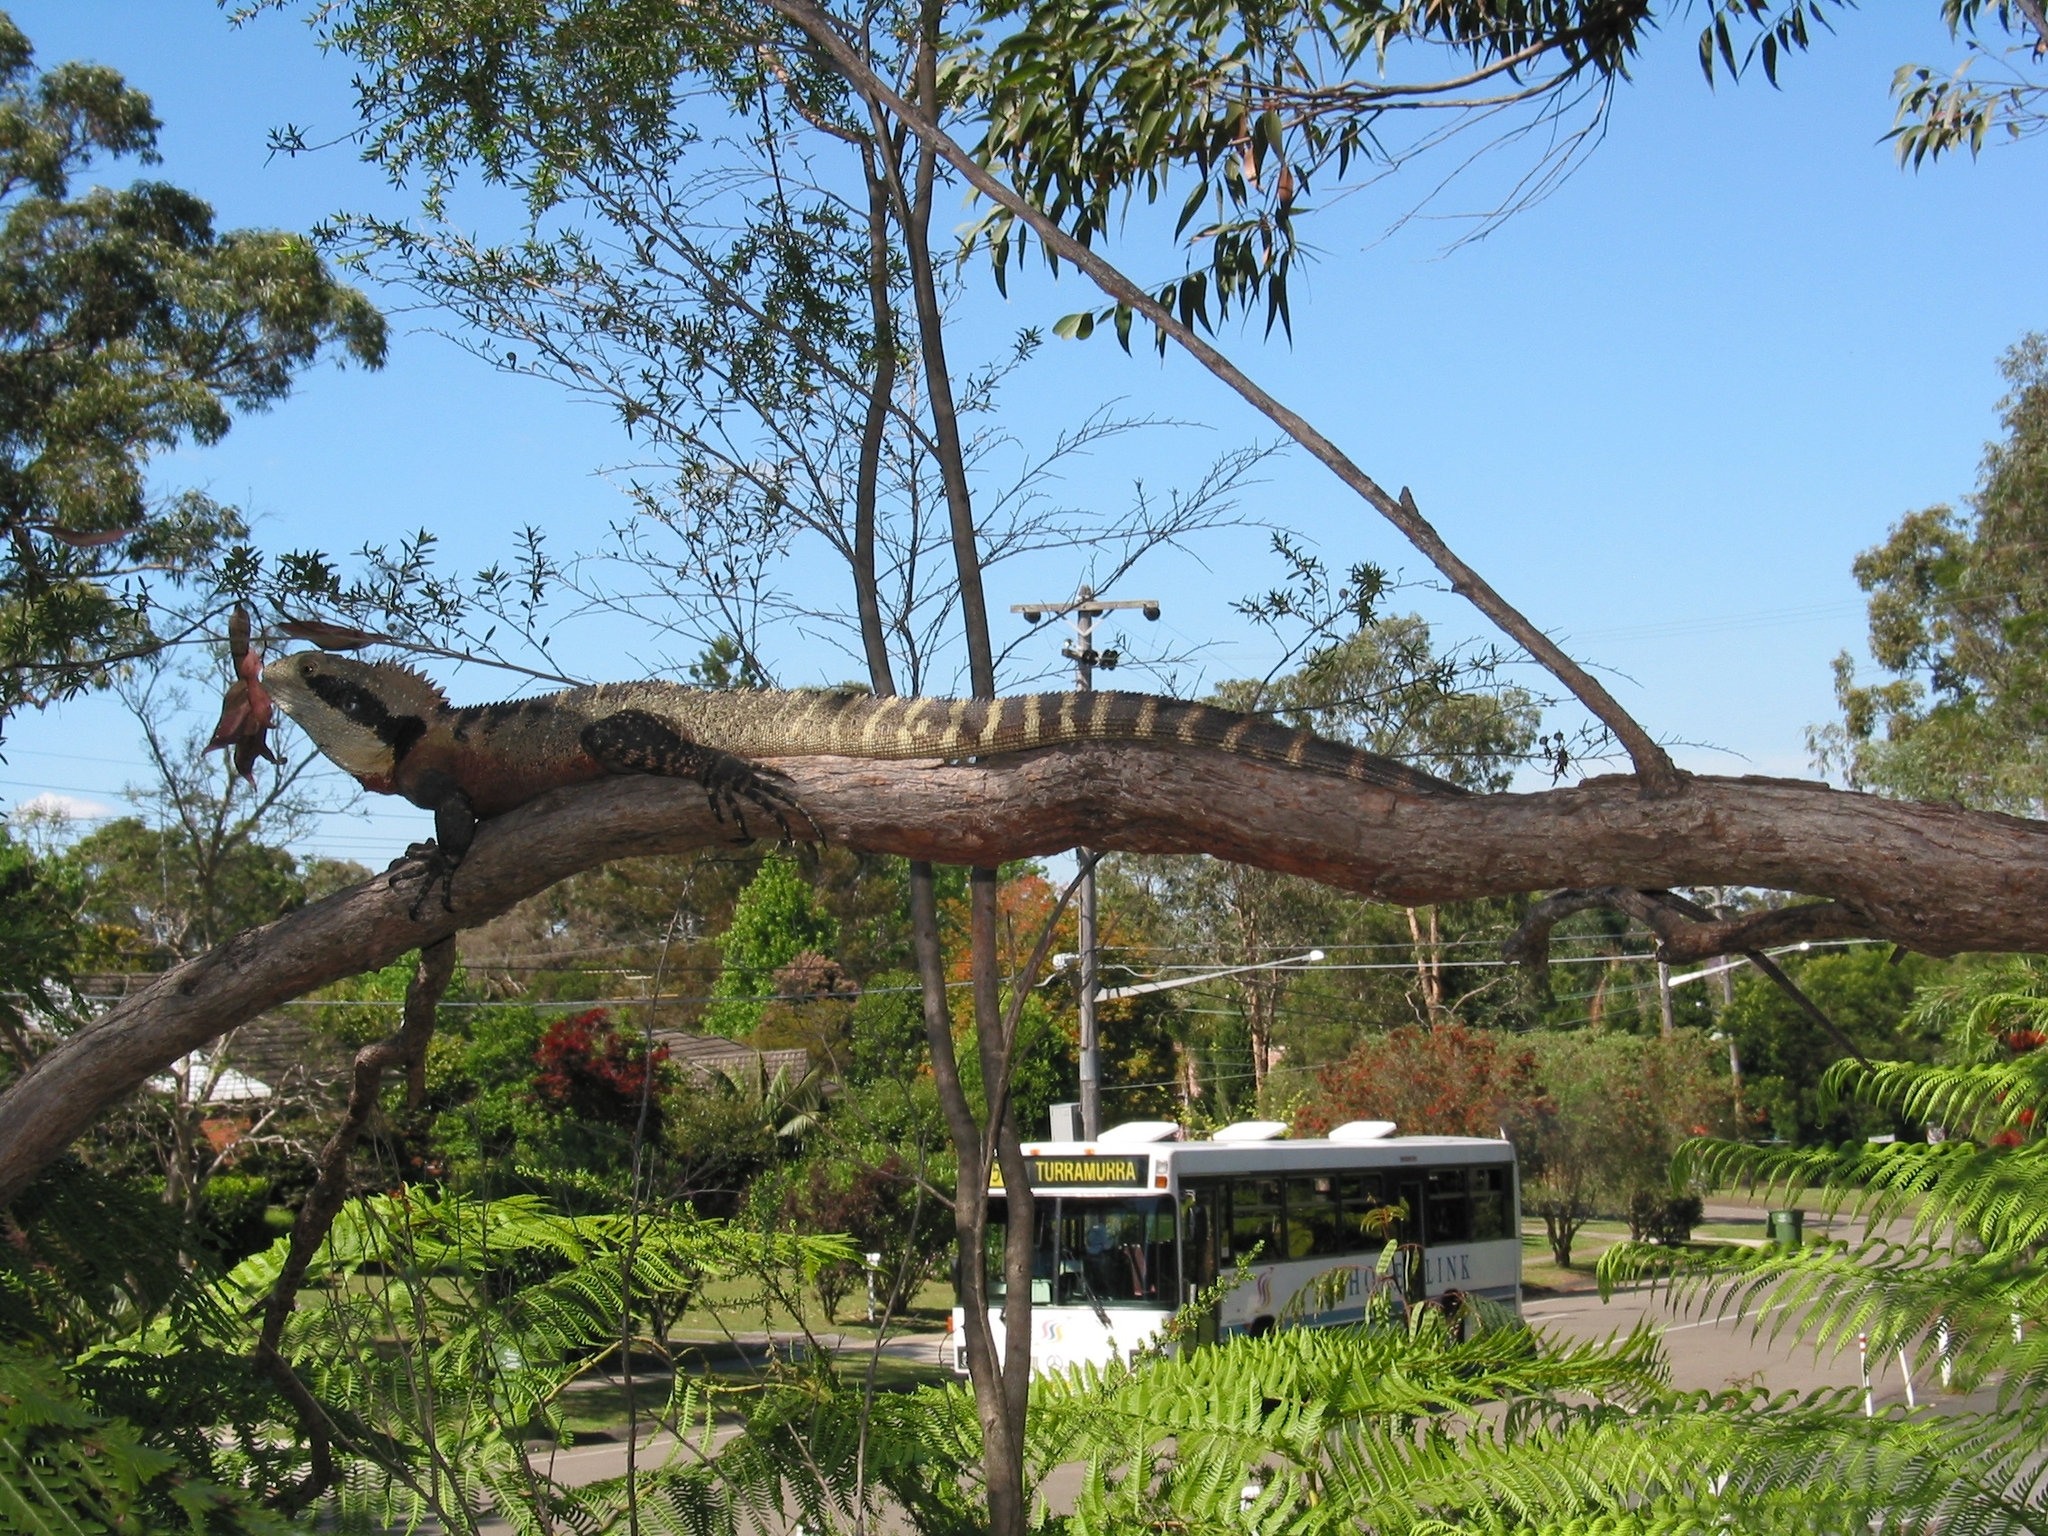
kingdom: Animalia
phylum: Chordata
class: Squamata
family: Agamidae
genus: Intellagama
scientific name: Intellagama lesueurii
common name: Eastern water dragon
